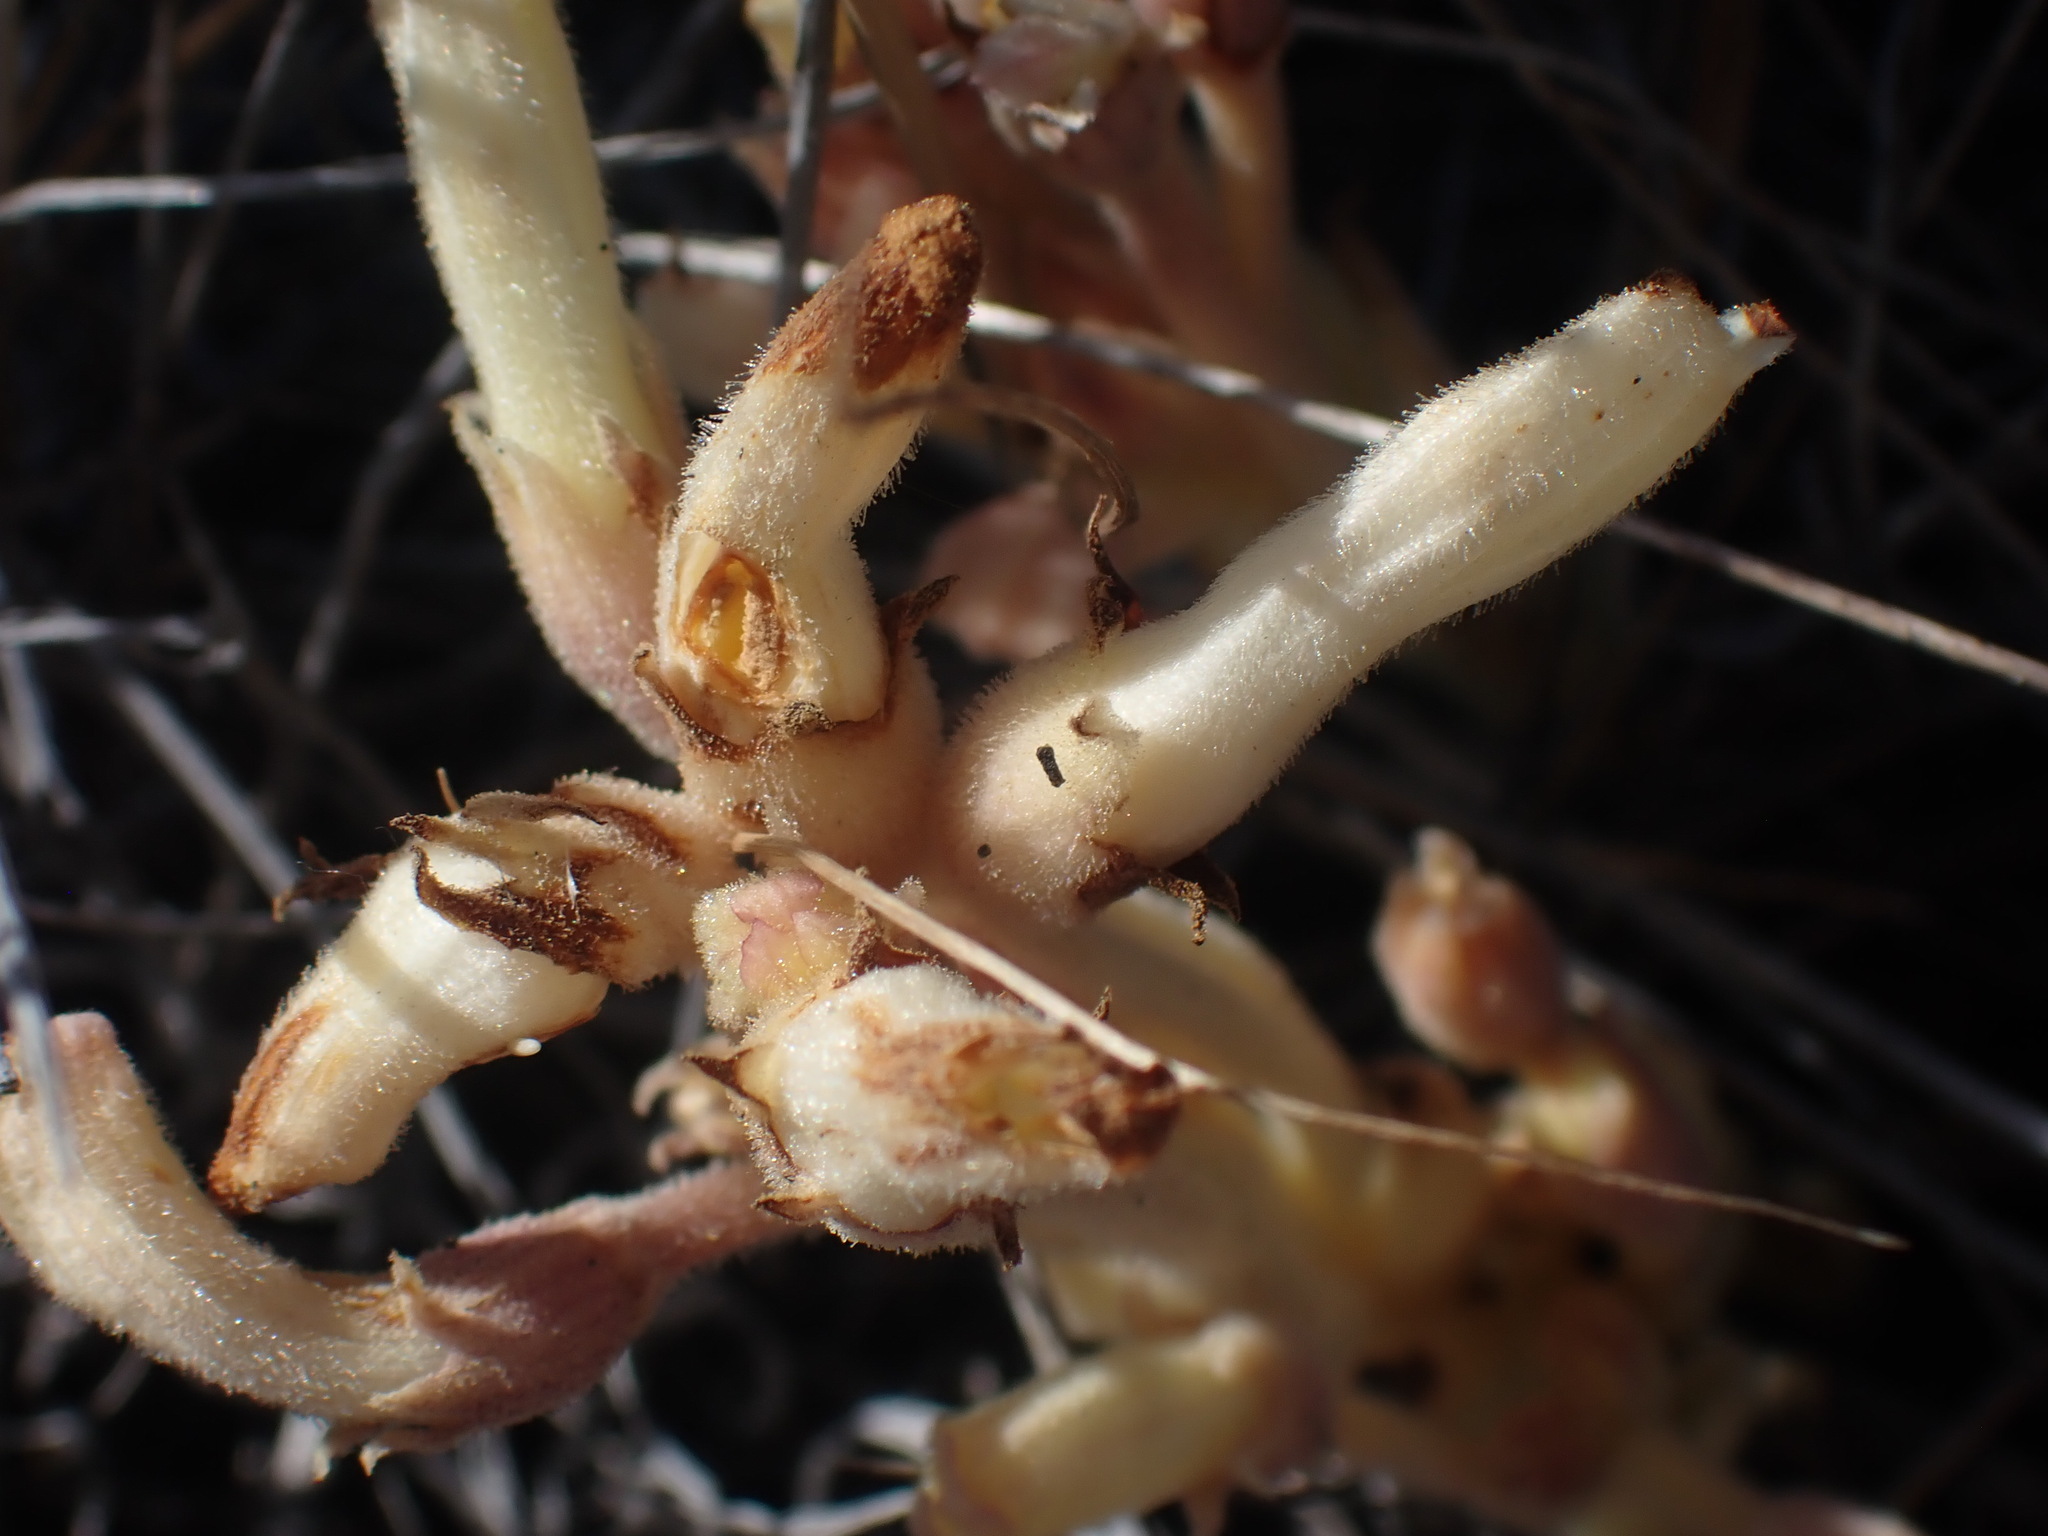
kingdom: Plantae
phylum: Tracheophyta
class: Magnoliopsida
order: Lamiales
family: Orobanchaceae
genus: Aphyllon
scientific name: Aphyllon fasciculatum
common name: Clustered broomrape
